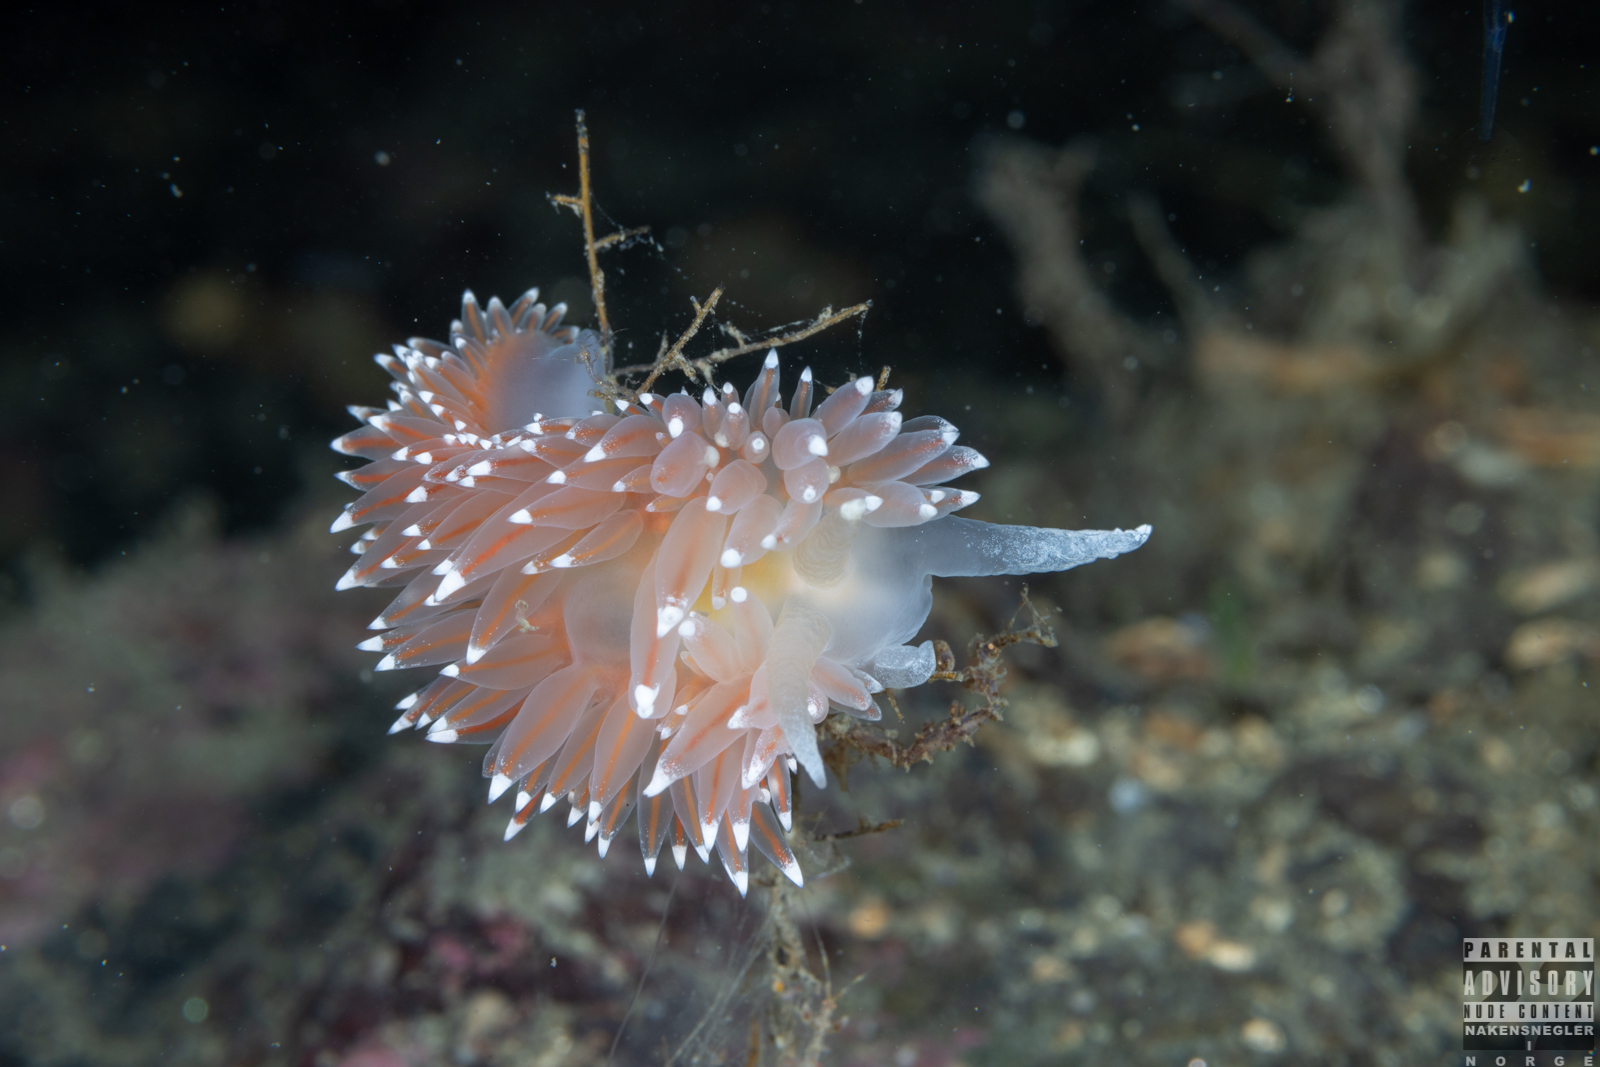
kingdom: Animalia
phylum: Mollusca
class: Gastropoda
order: Nudibranchia
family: Coryphellidae
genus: Coryphella
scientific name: Coryphella nobilis
